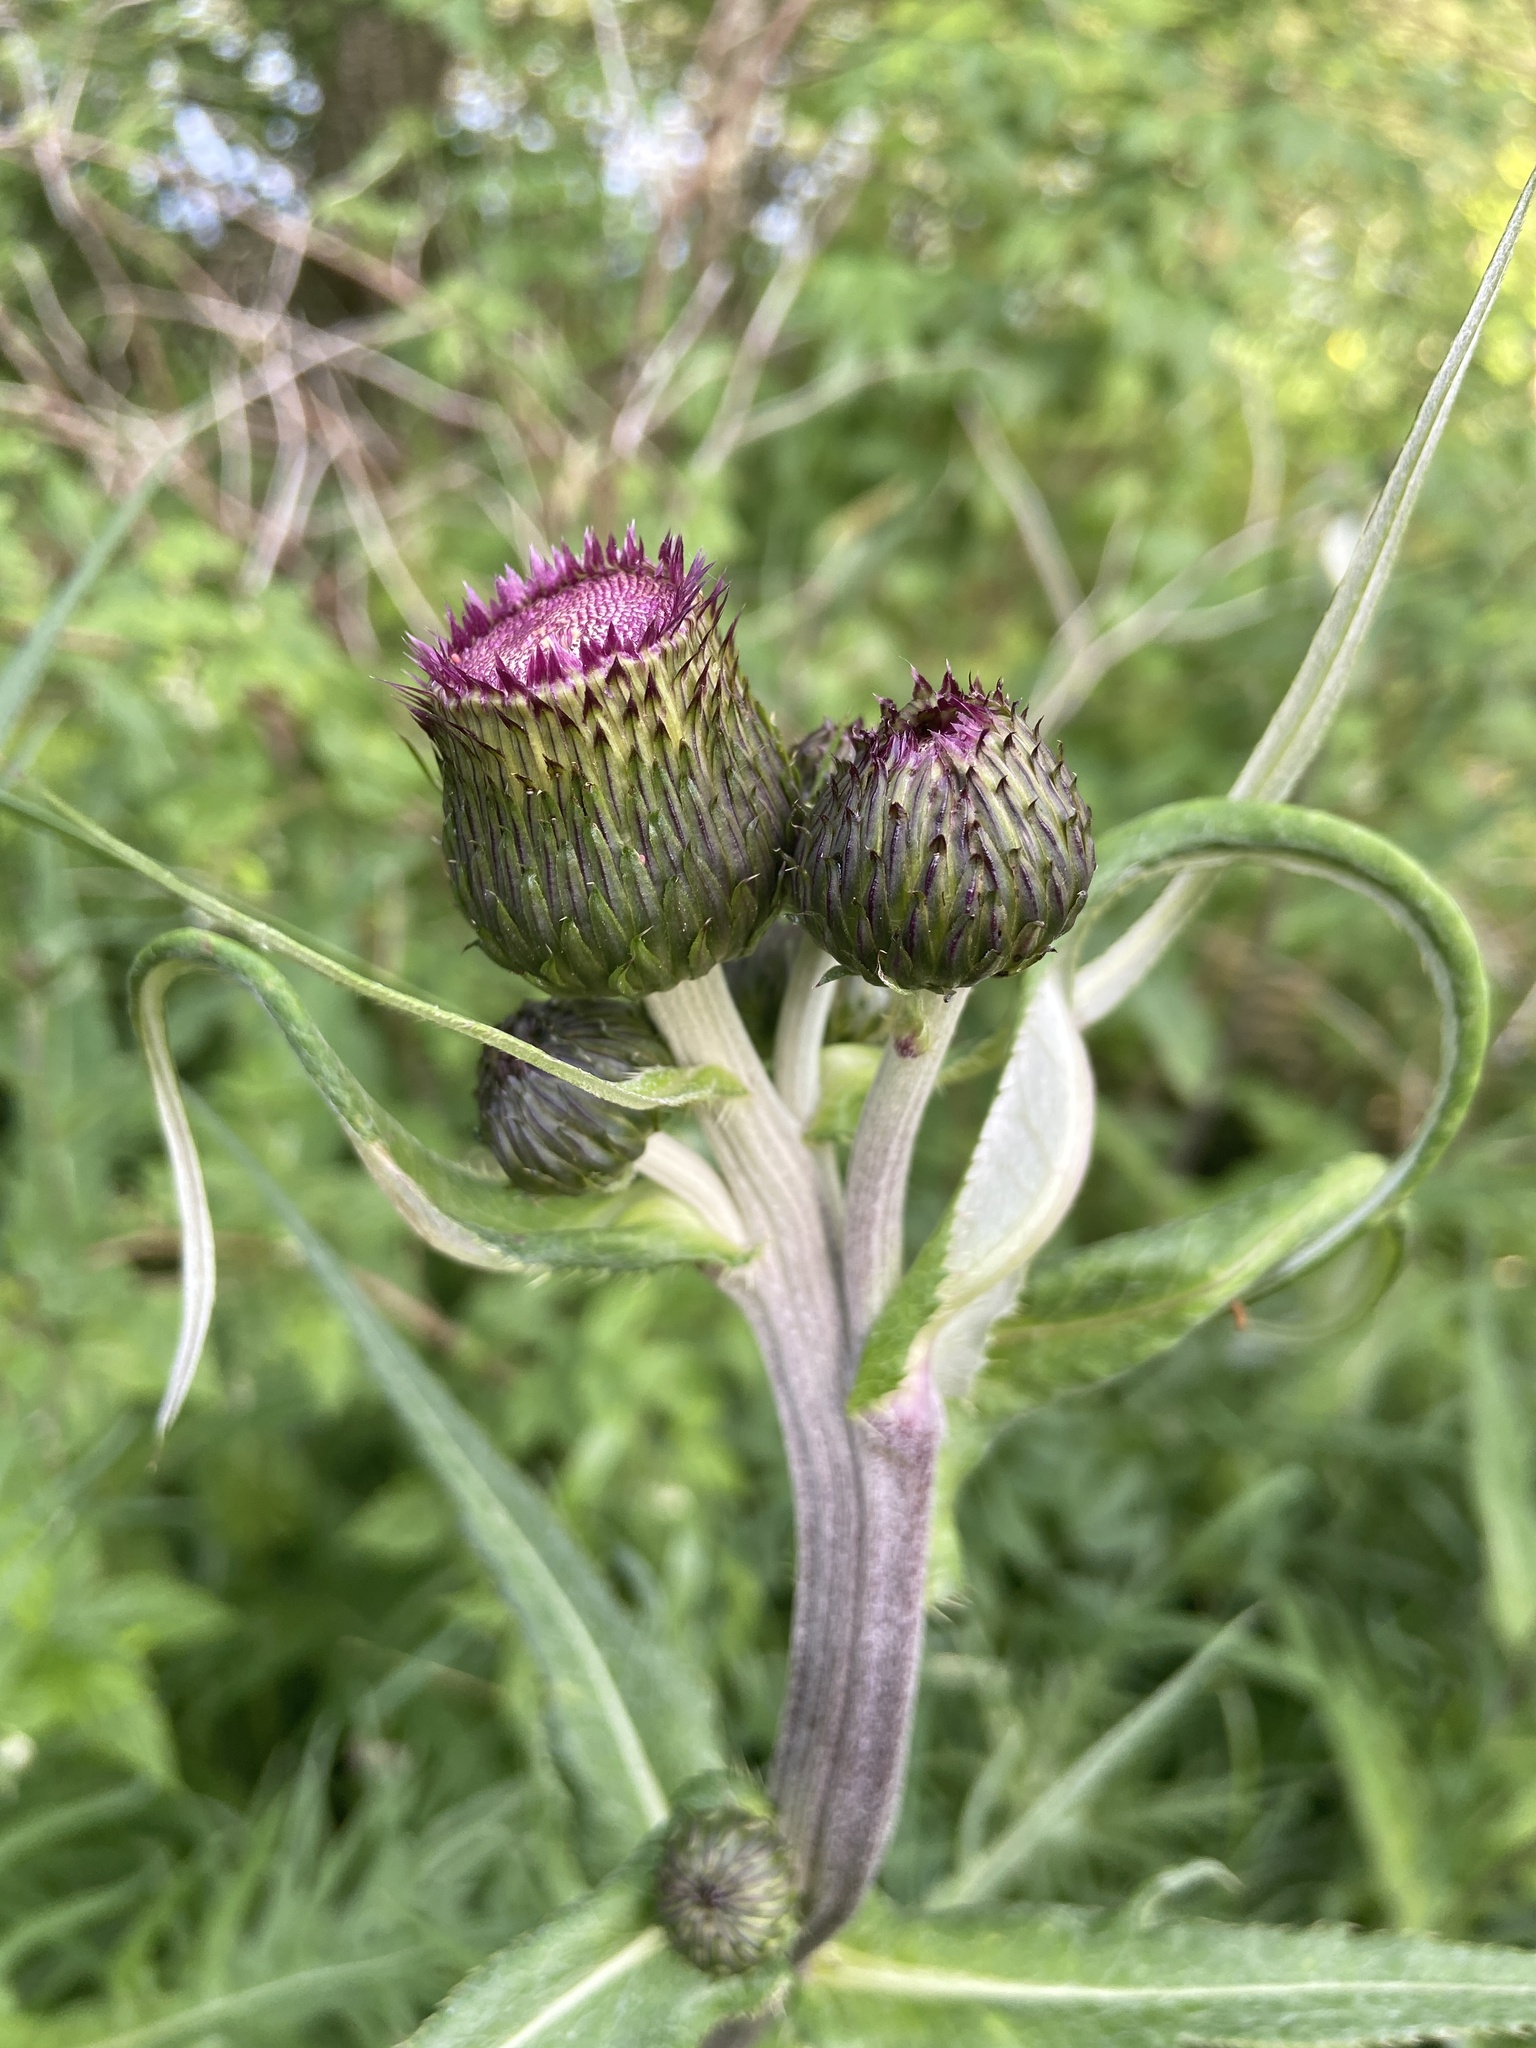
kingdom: Plantae
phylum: Tracheophyta
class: Magnoliopsida
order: Asterales
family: Asteraceae
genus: Cirsium
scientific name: Cirsium heterophyllum
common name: Melancholy thistle
